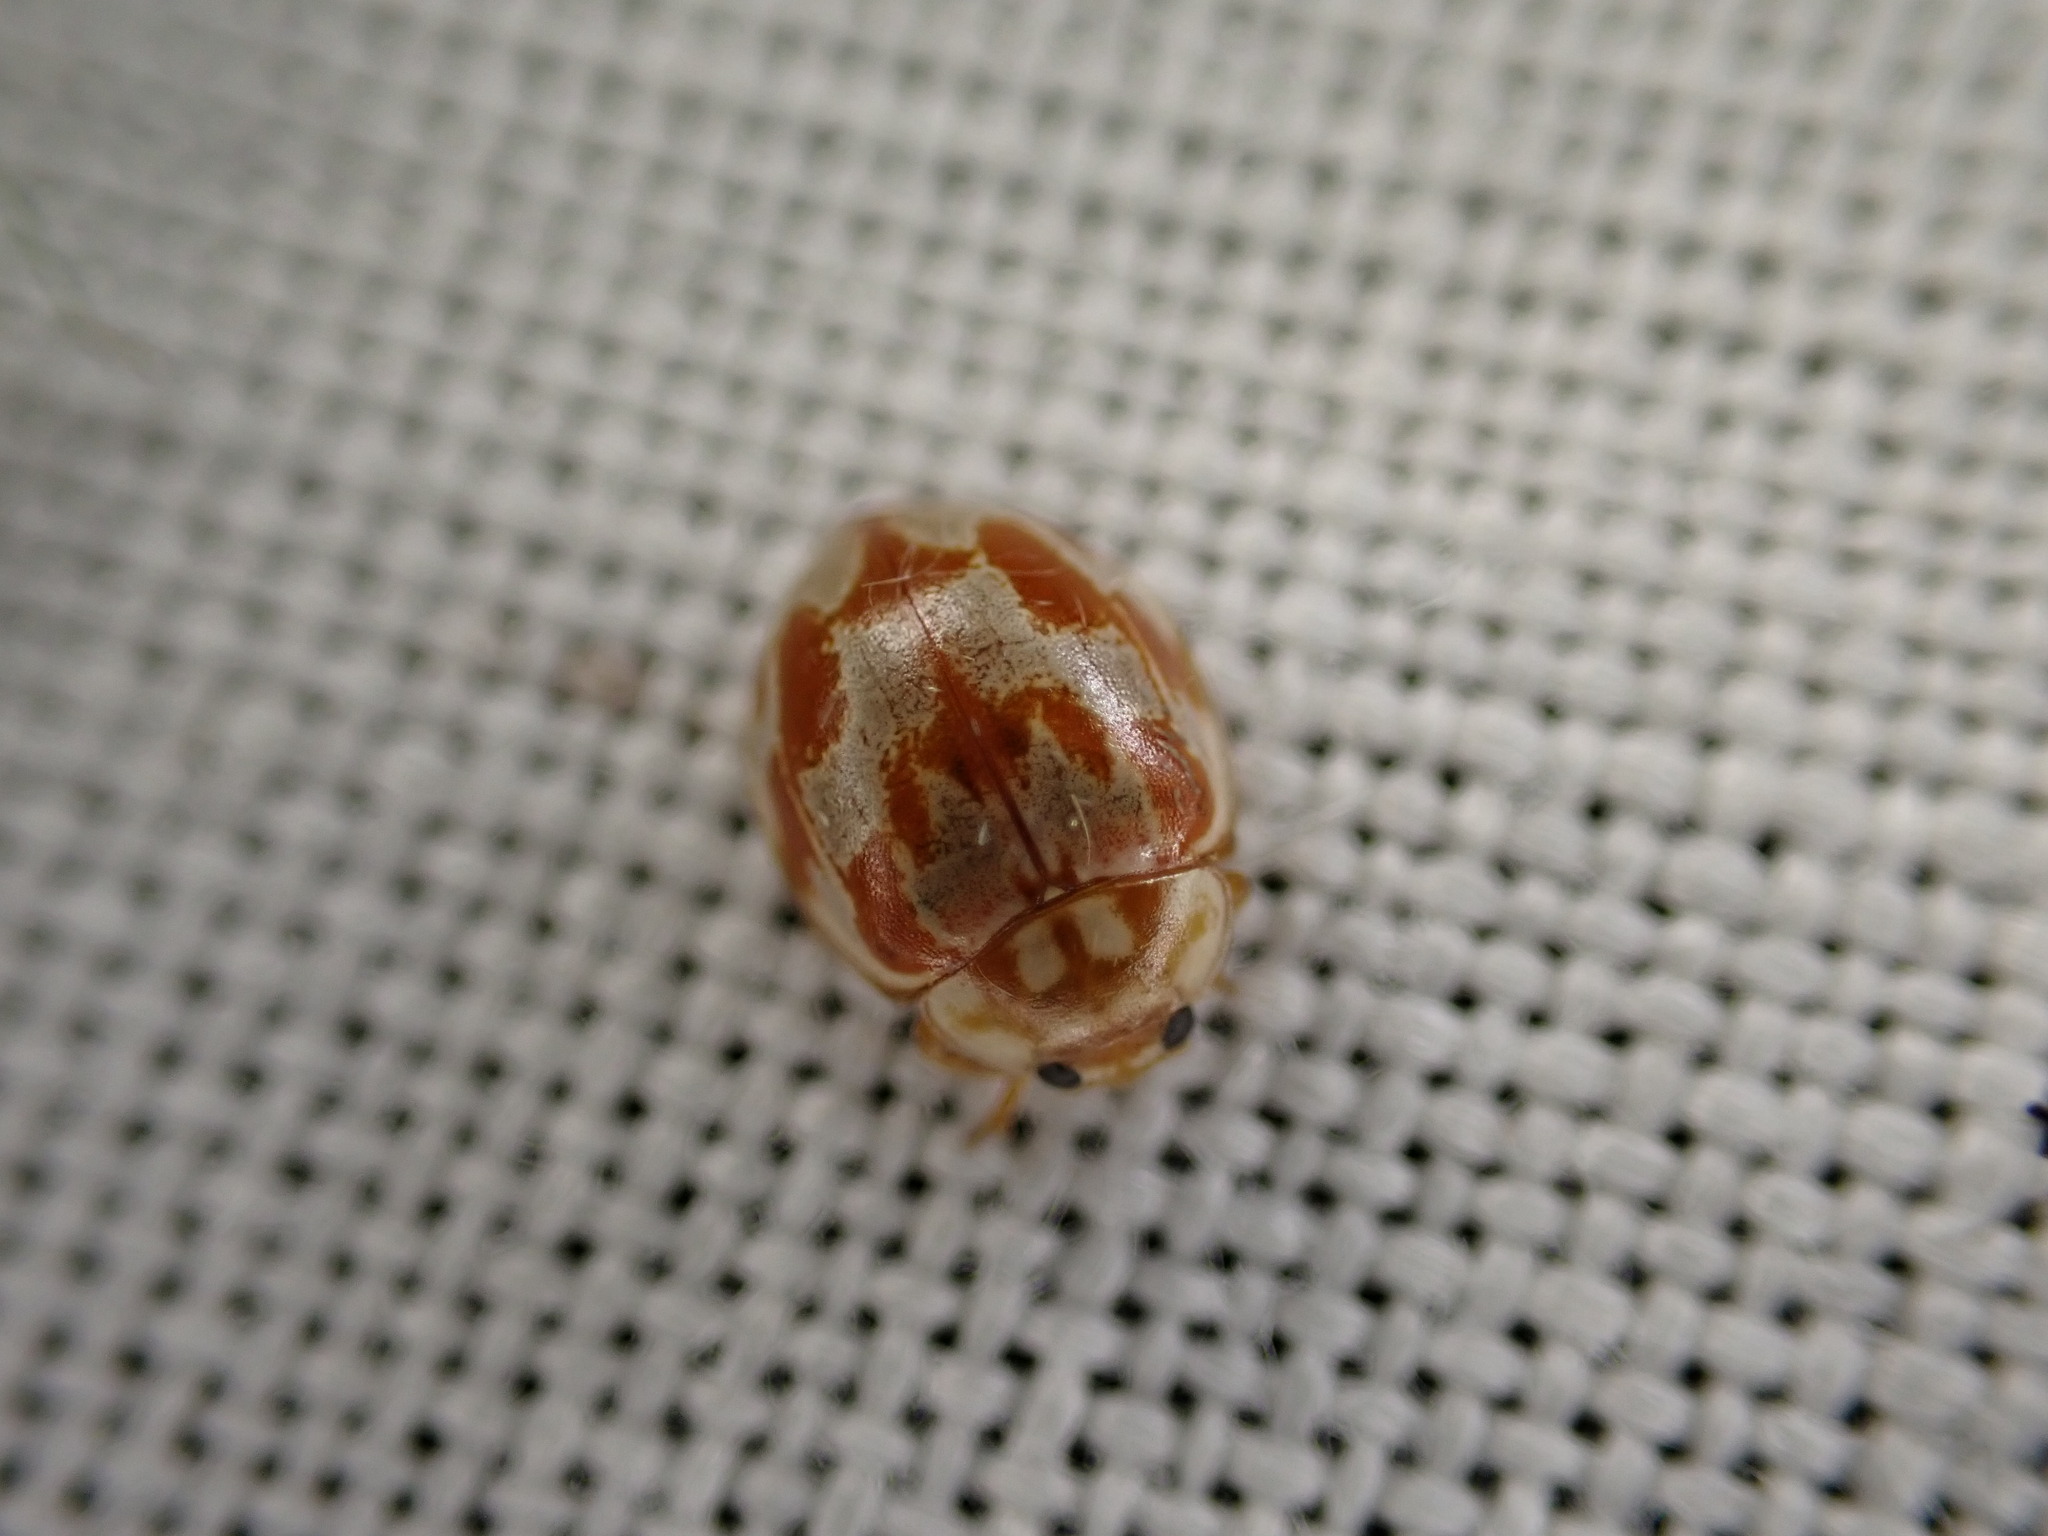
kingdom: Animalia
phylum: Arthropoda
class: Insecta
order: Coleoptera
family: Coccinellidae
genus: Myrrha
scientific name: Myrrha octodecimguttata
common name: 18-spot ladybird
